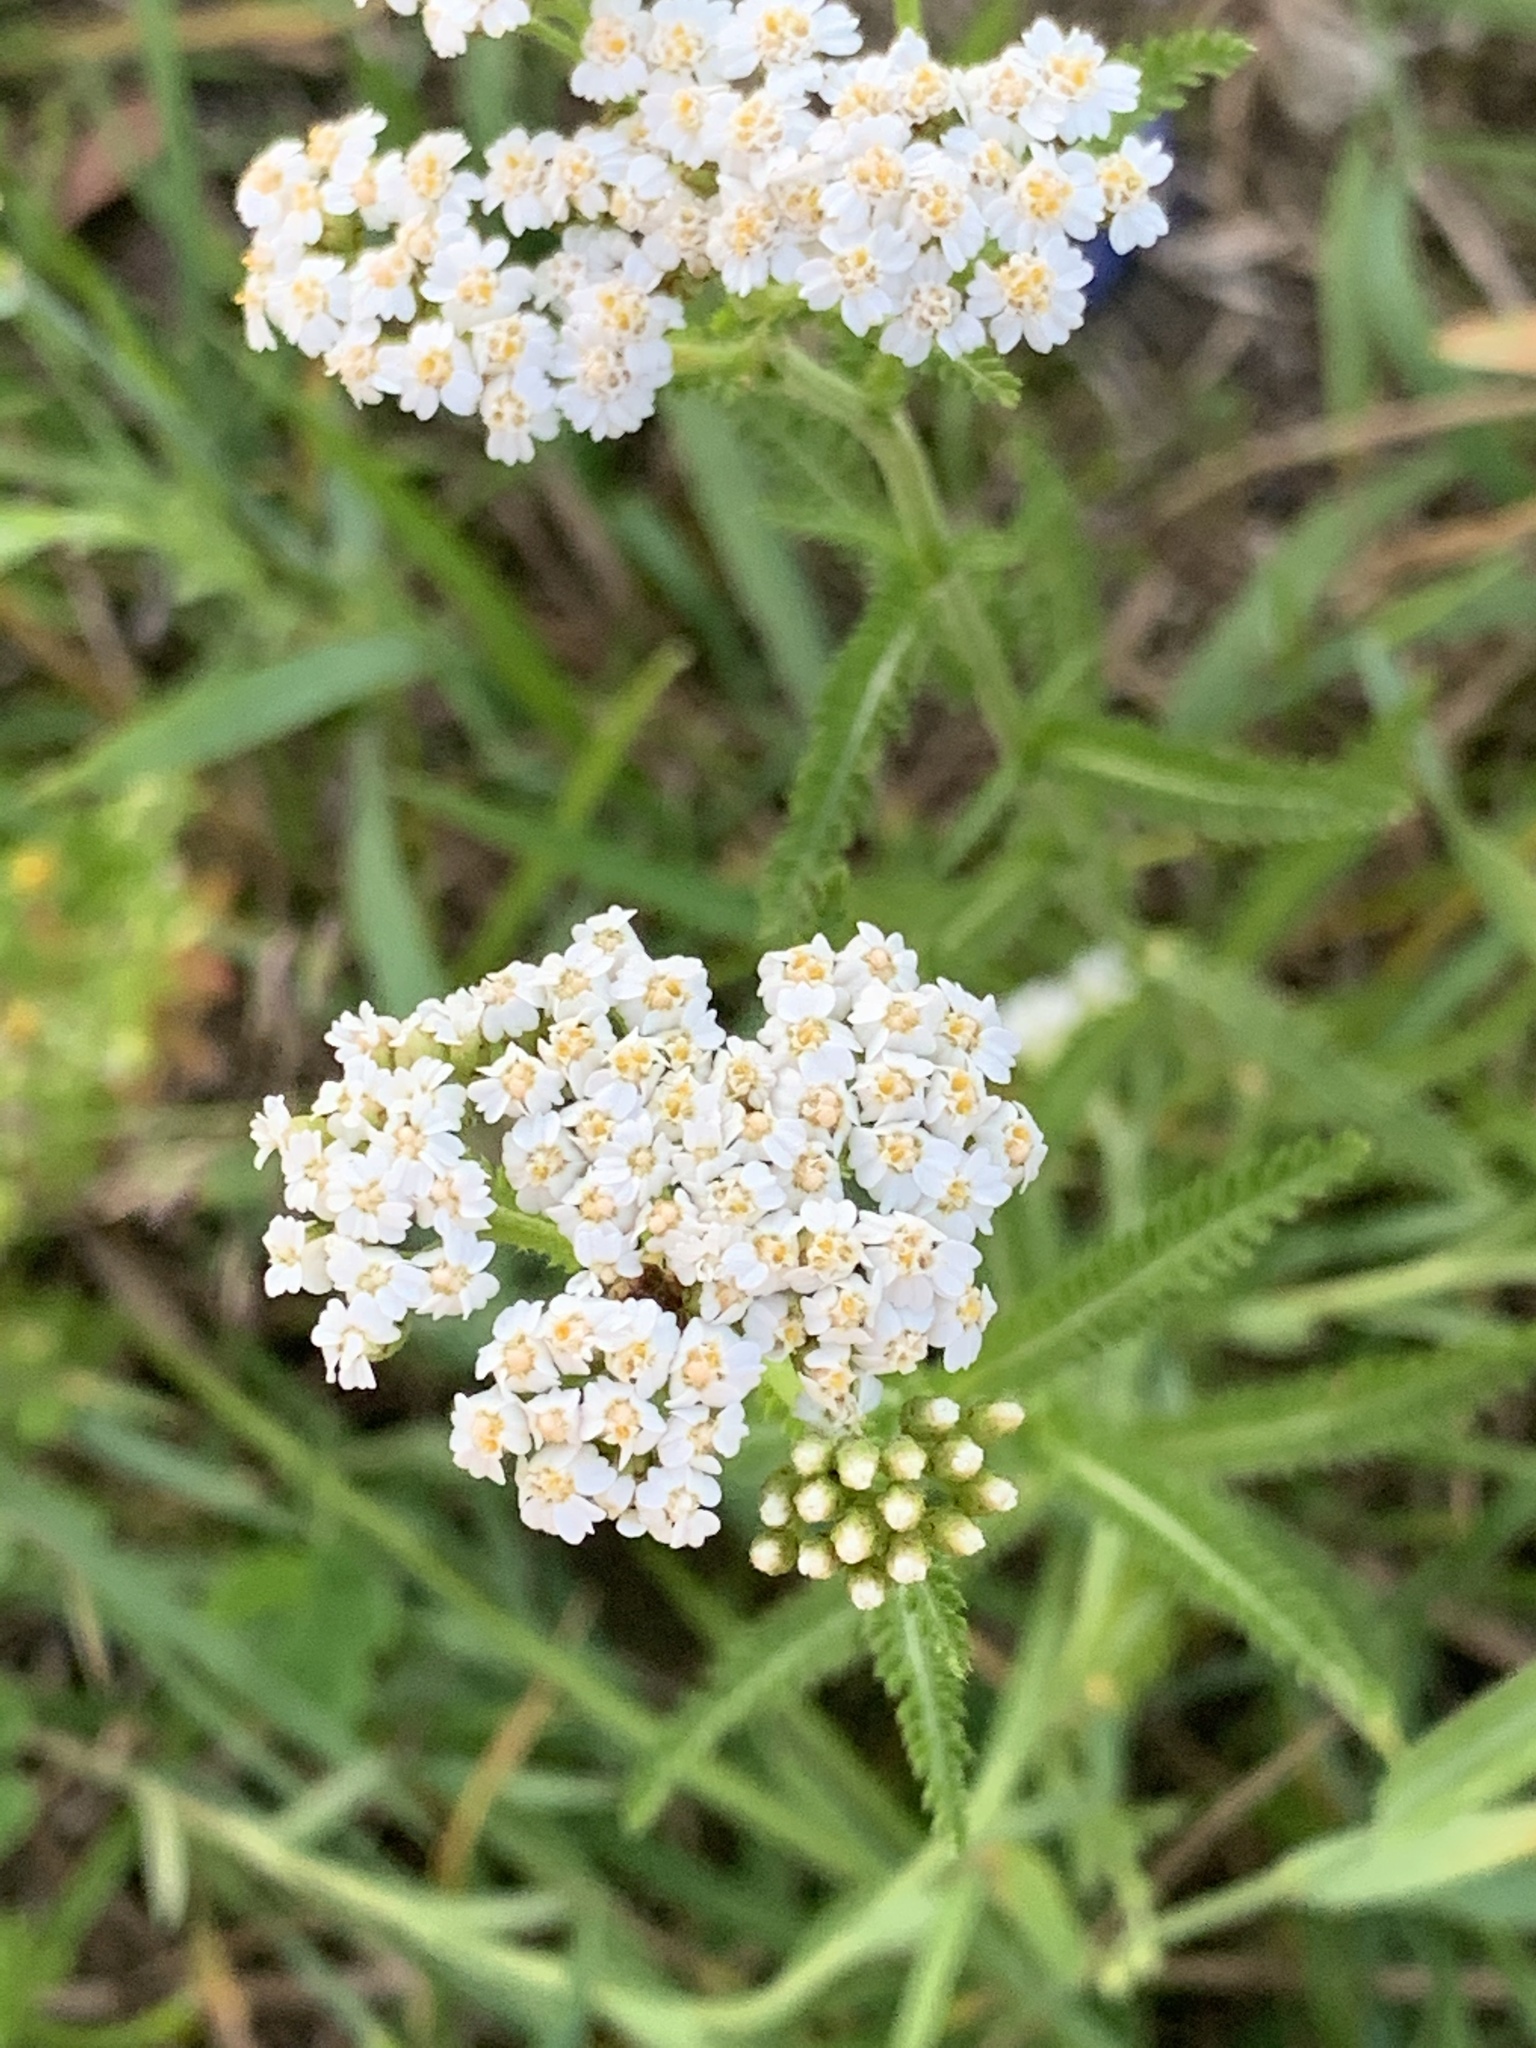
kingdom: Plantae
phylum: Tracheophyta
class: Magnoliopsida
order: Asterales
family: Asteraceae
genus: Achillea
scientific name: Achillea millefolium
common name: Yarrow
